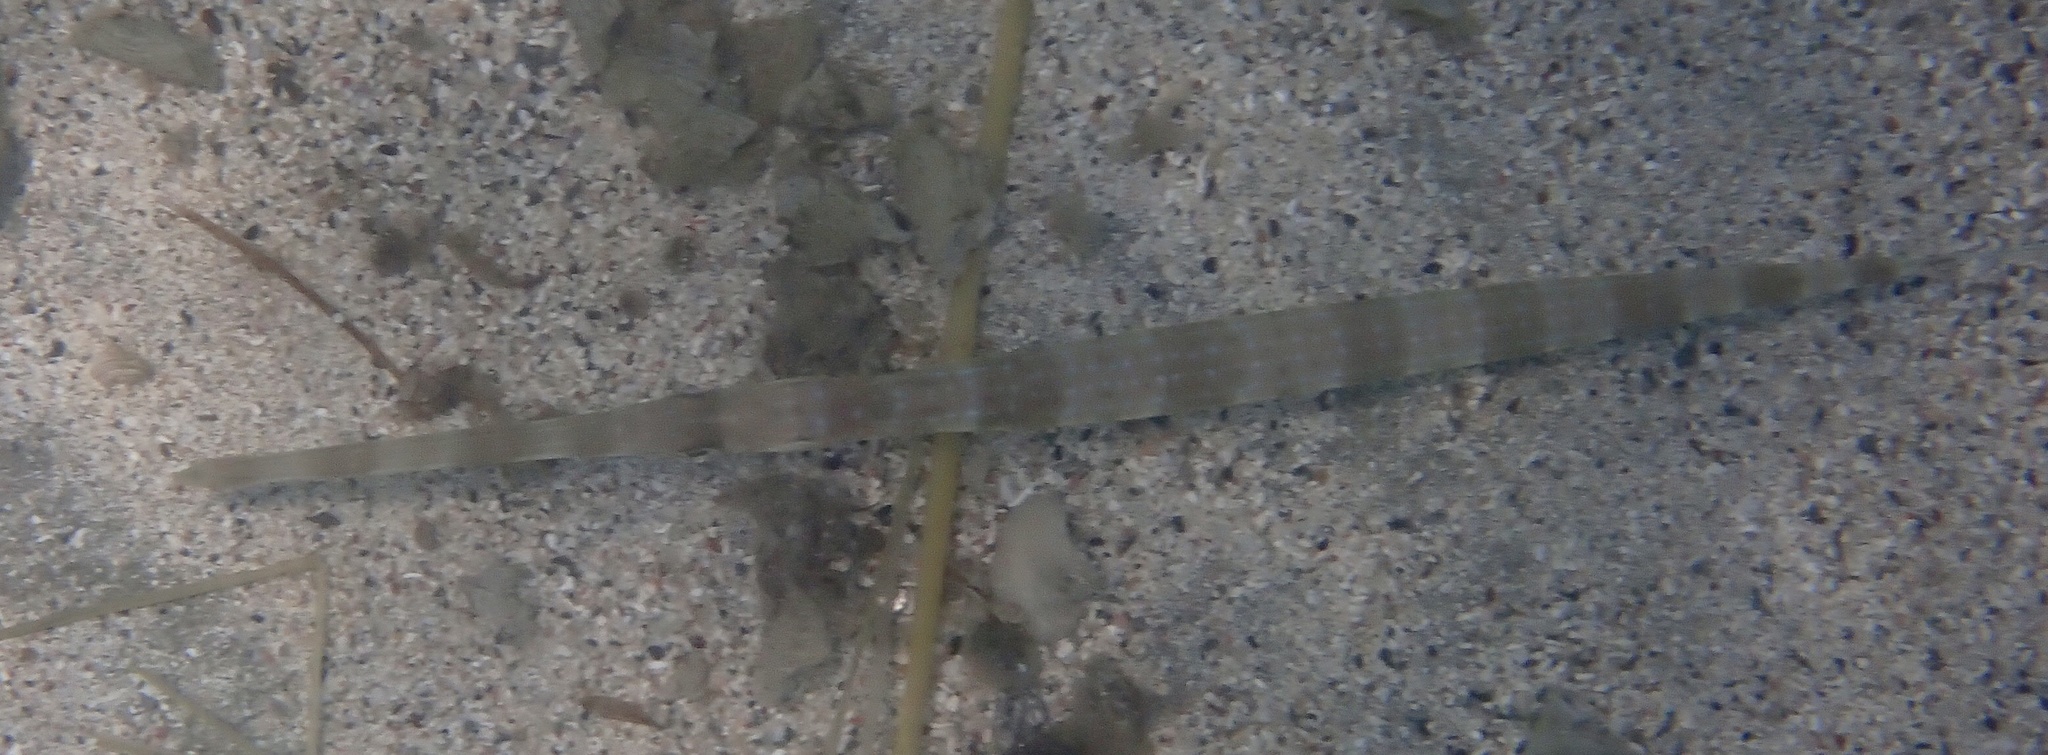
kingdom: Animalia
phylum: Chordata
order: Syngnathiformes
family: Fistulariidae
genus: Fistularia
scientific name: Fistularia commersonii
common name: Bluespotted cornetfish
